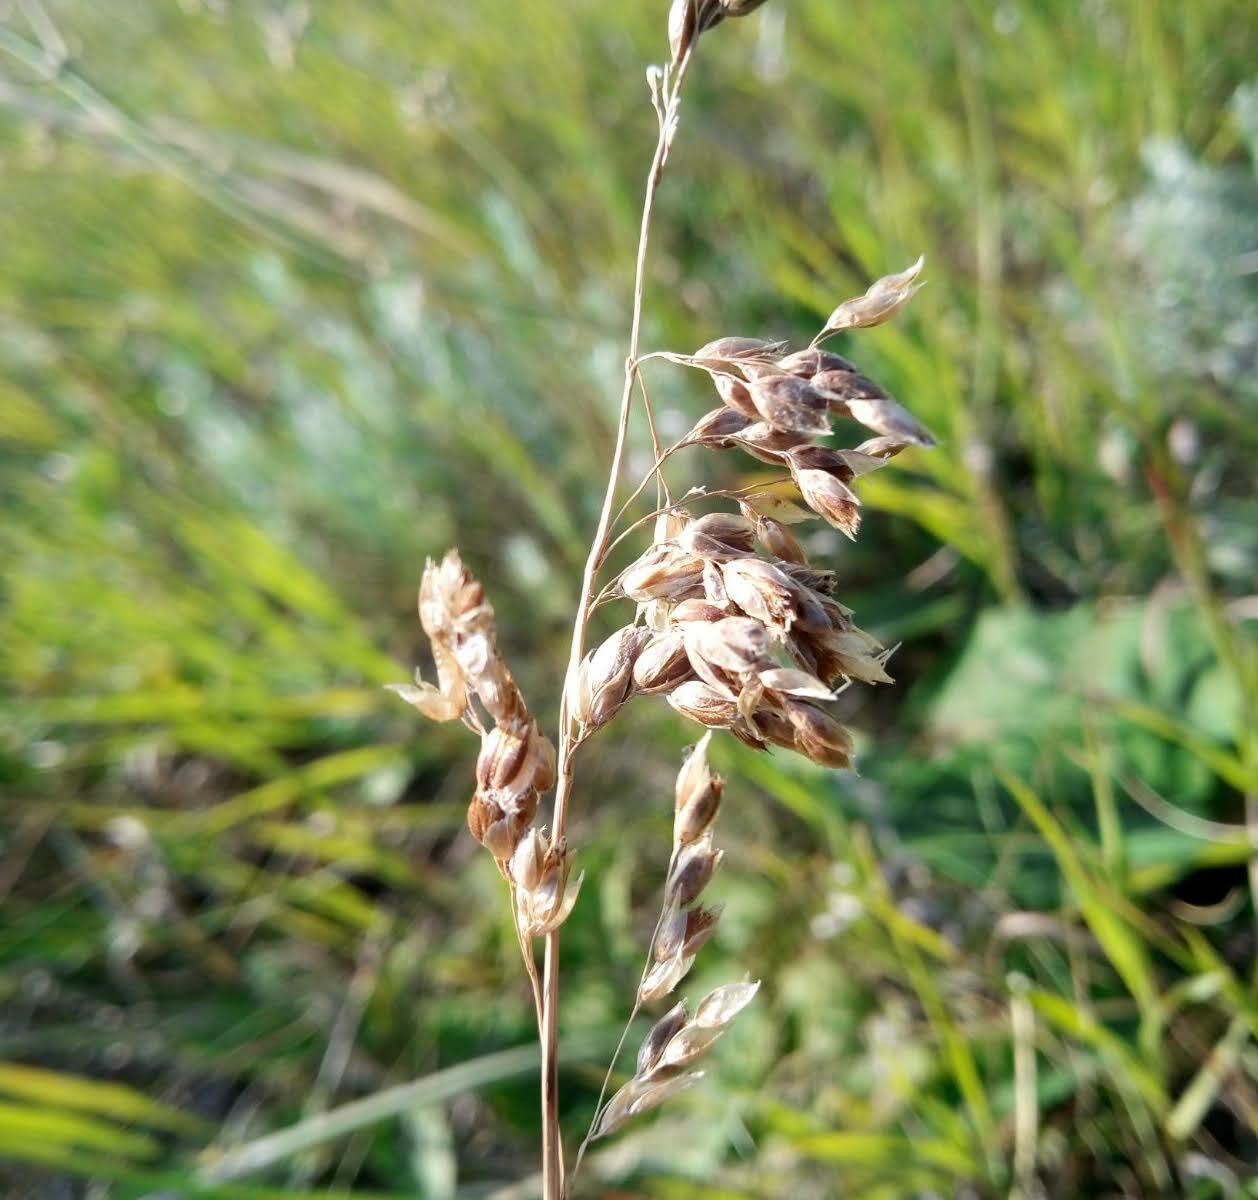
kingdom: Plantae
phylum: Tracheophyta
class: Liliopsida
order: Poales
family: Poaceae
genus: Anthoxanthum
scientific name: Anthoxanthum repens
